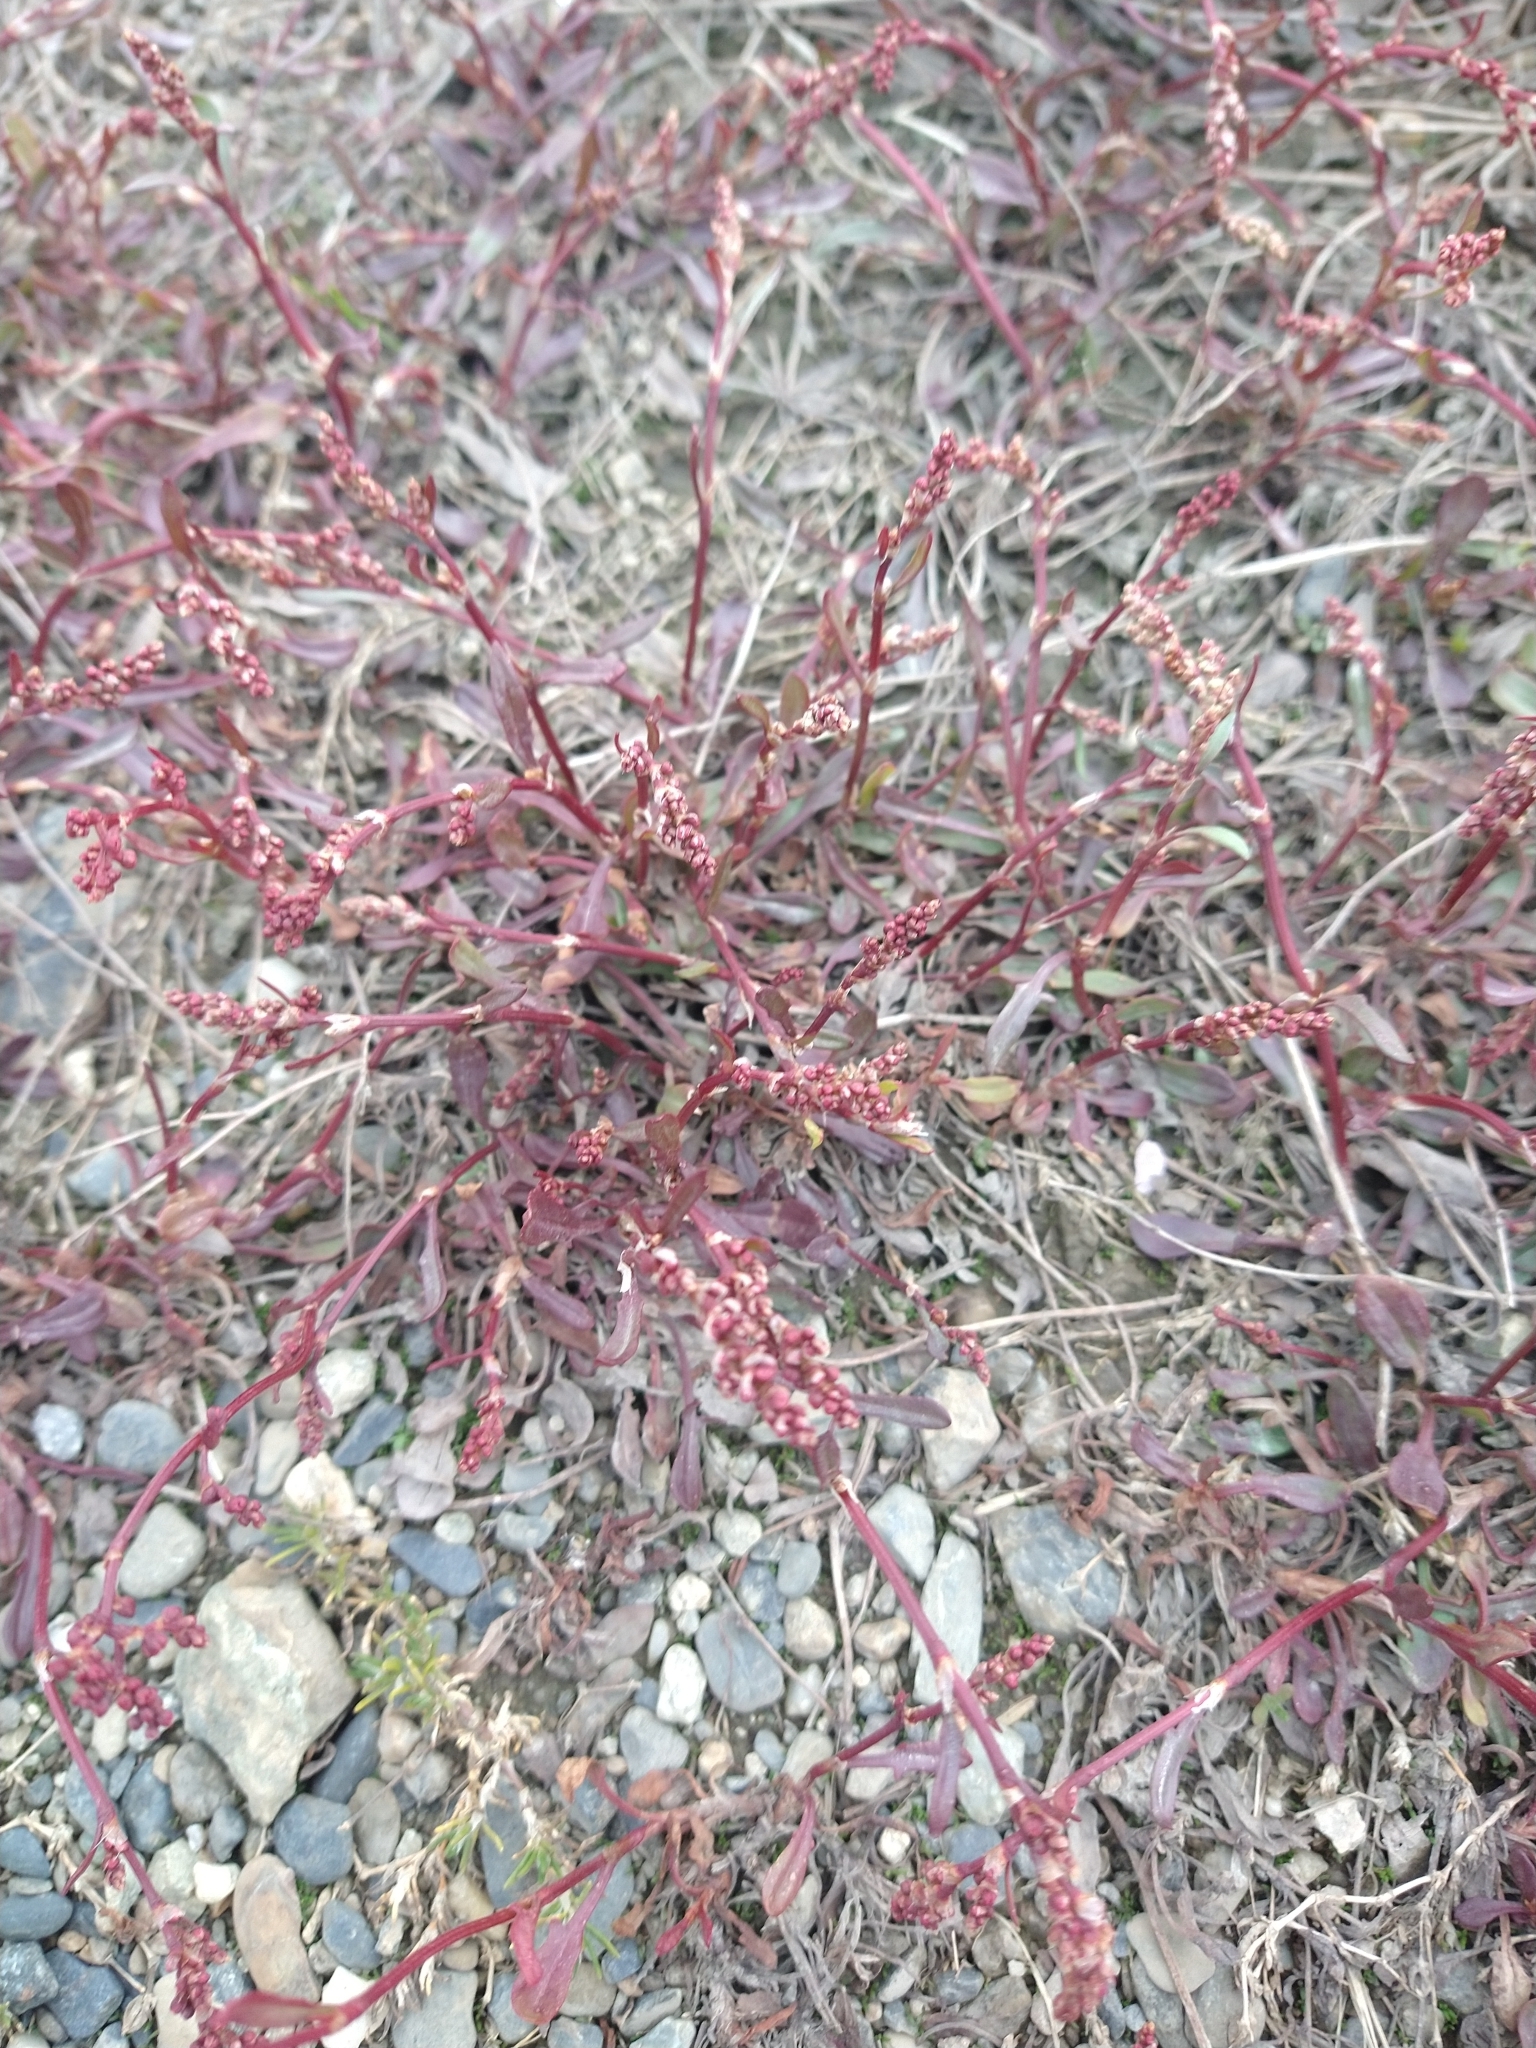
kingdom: Plantae
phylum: Tracheophyta
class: Magnoliopsida
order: Caryophyllales
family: Polygonaceae
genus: Rumex
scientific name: Rumex acetosella
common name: Common sheep sorrel
